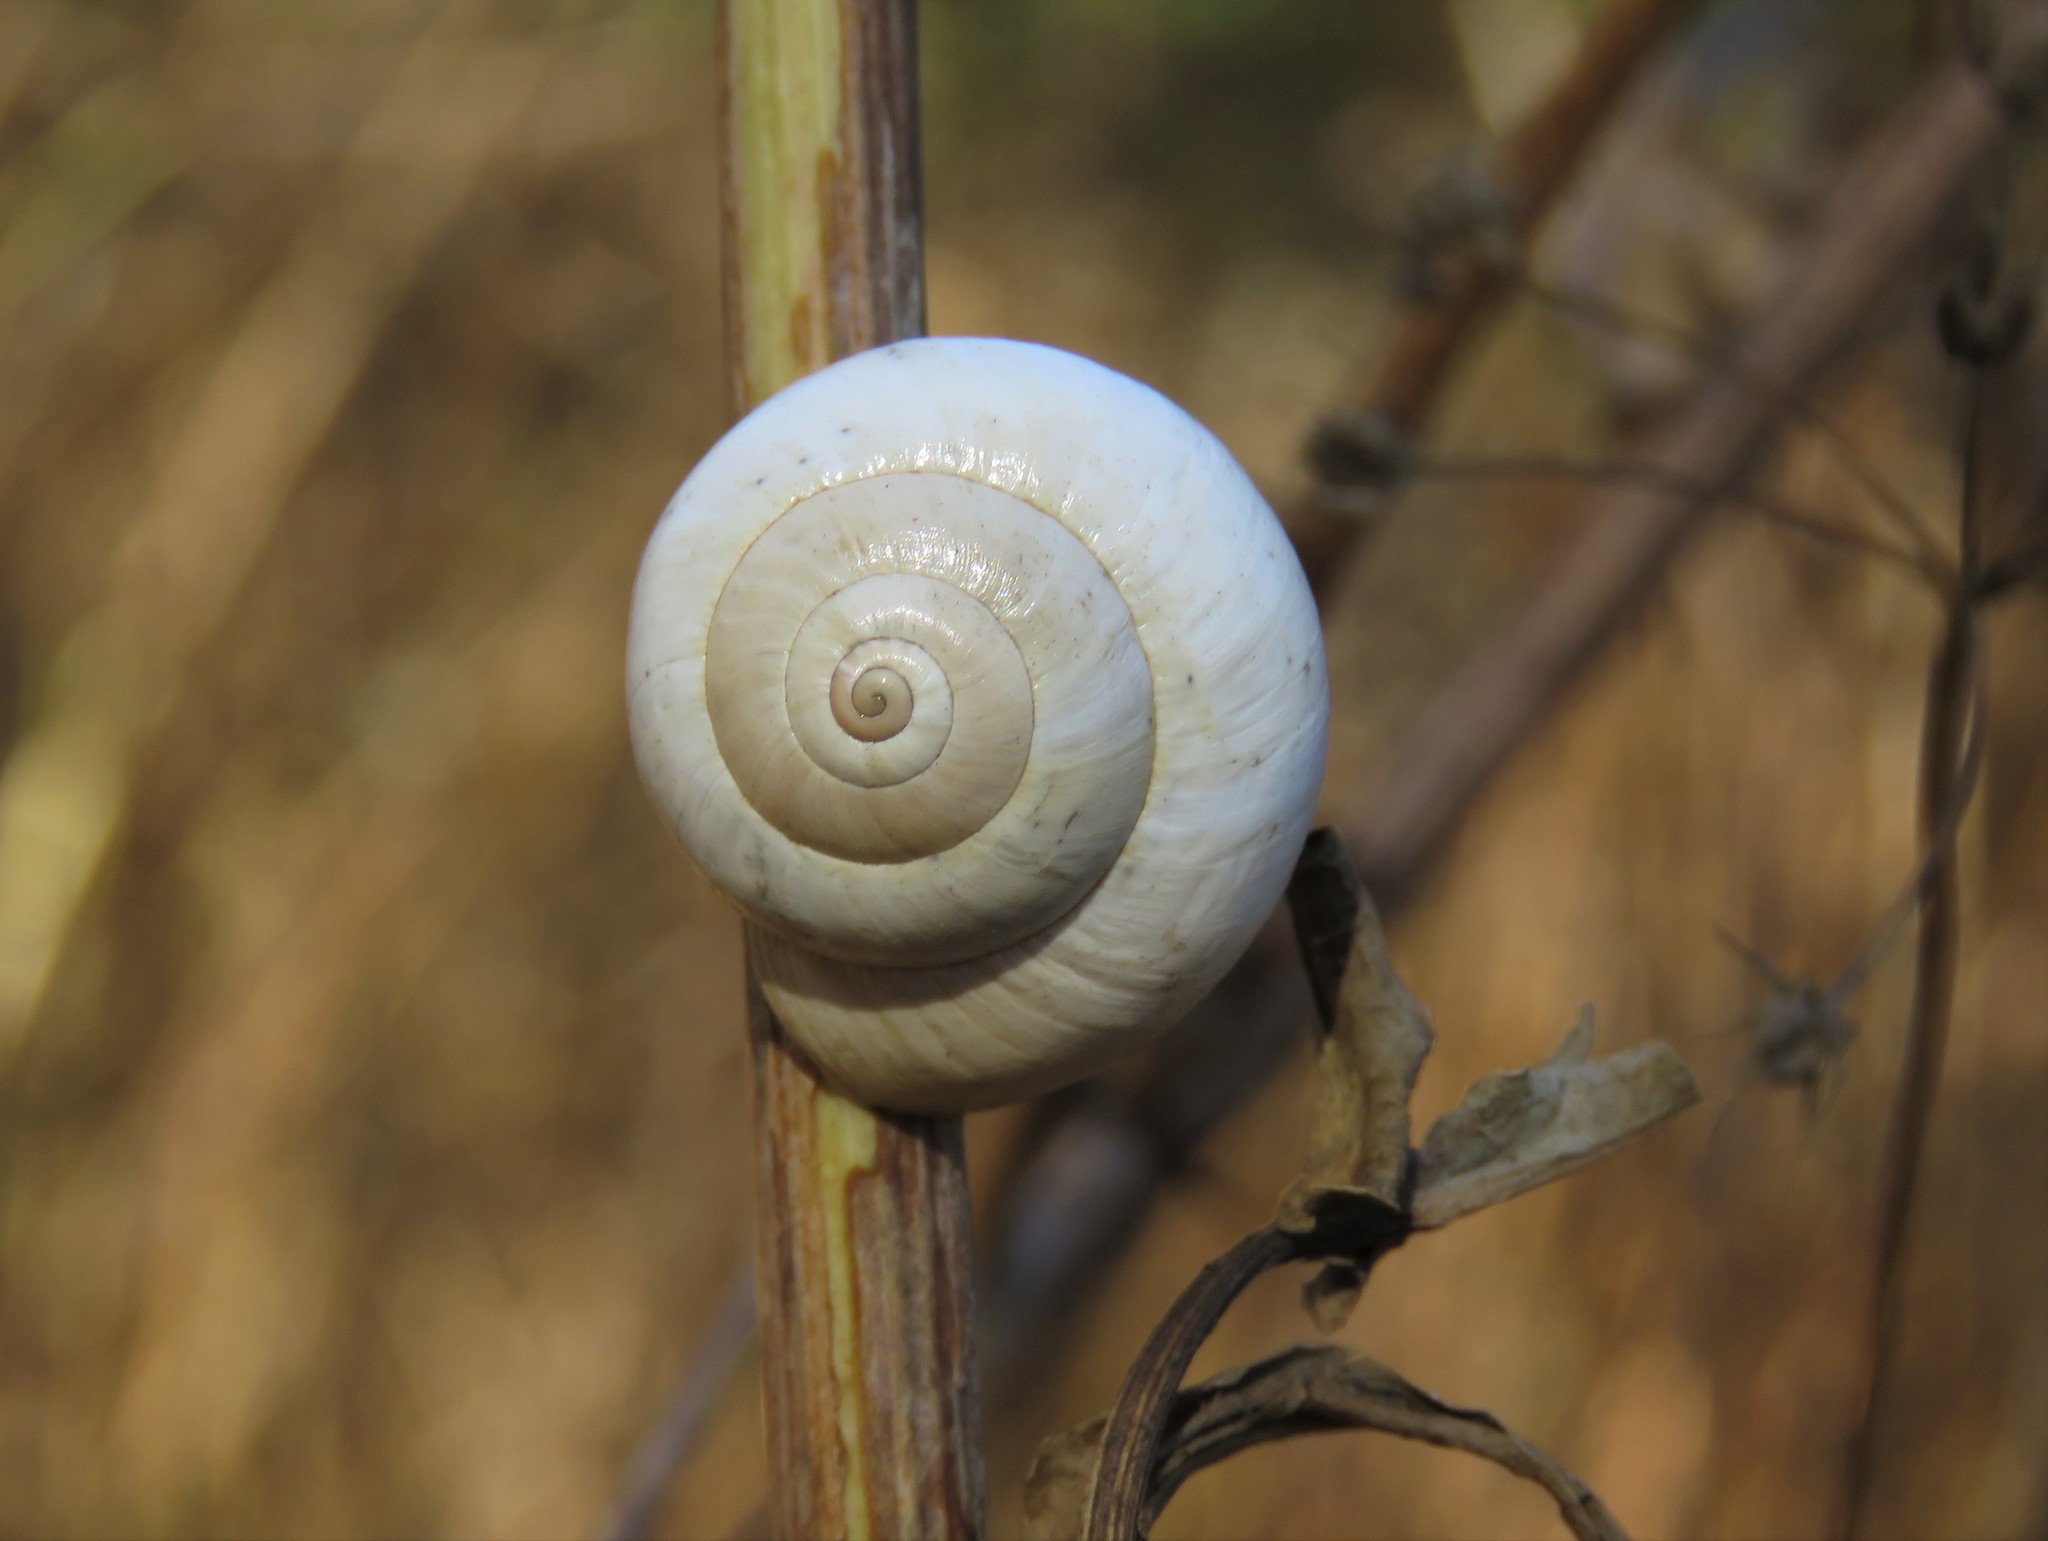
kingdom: Animalia
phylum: Mollusca
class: Gastropoda
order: Stylommatophora
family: Helicidae
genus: Theba
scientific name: Theba pisana
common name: White snail
